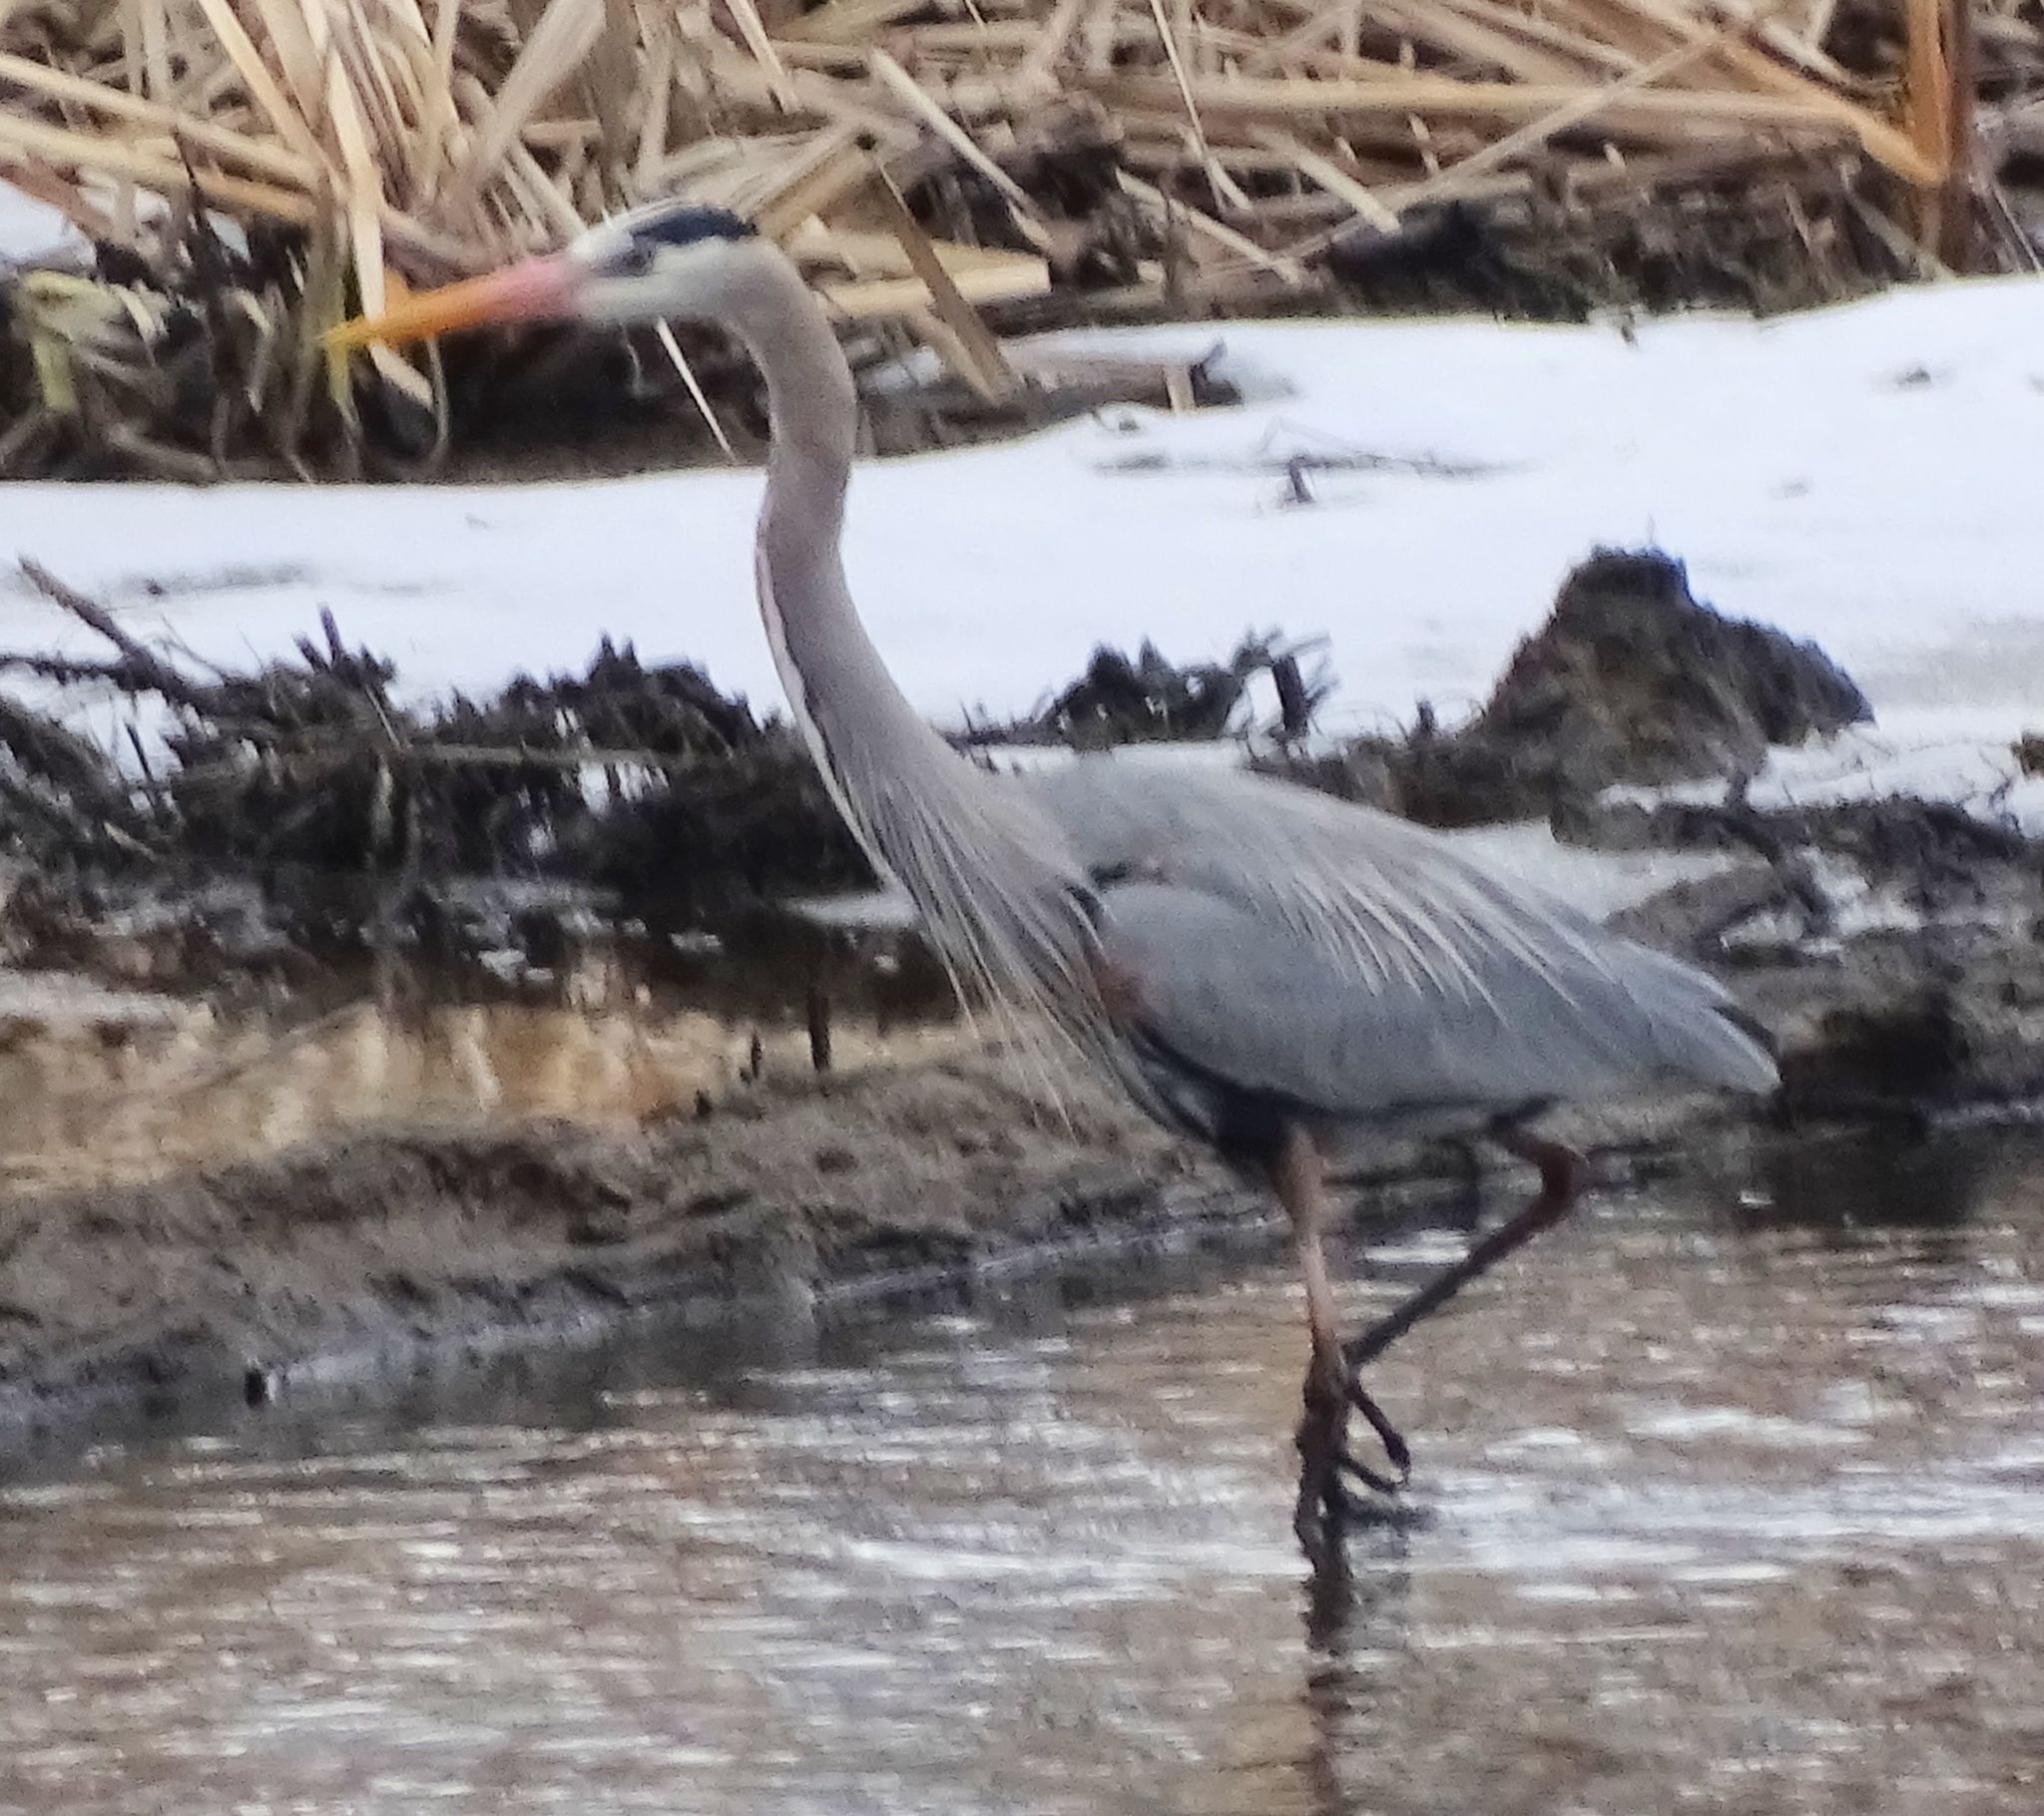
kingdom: Animalia
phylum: Chordata
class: Aves
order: Pelecaniformes
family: Ardeidae
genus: Ardea
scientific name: Ardea herodias
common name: Great blue heron
